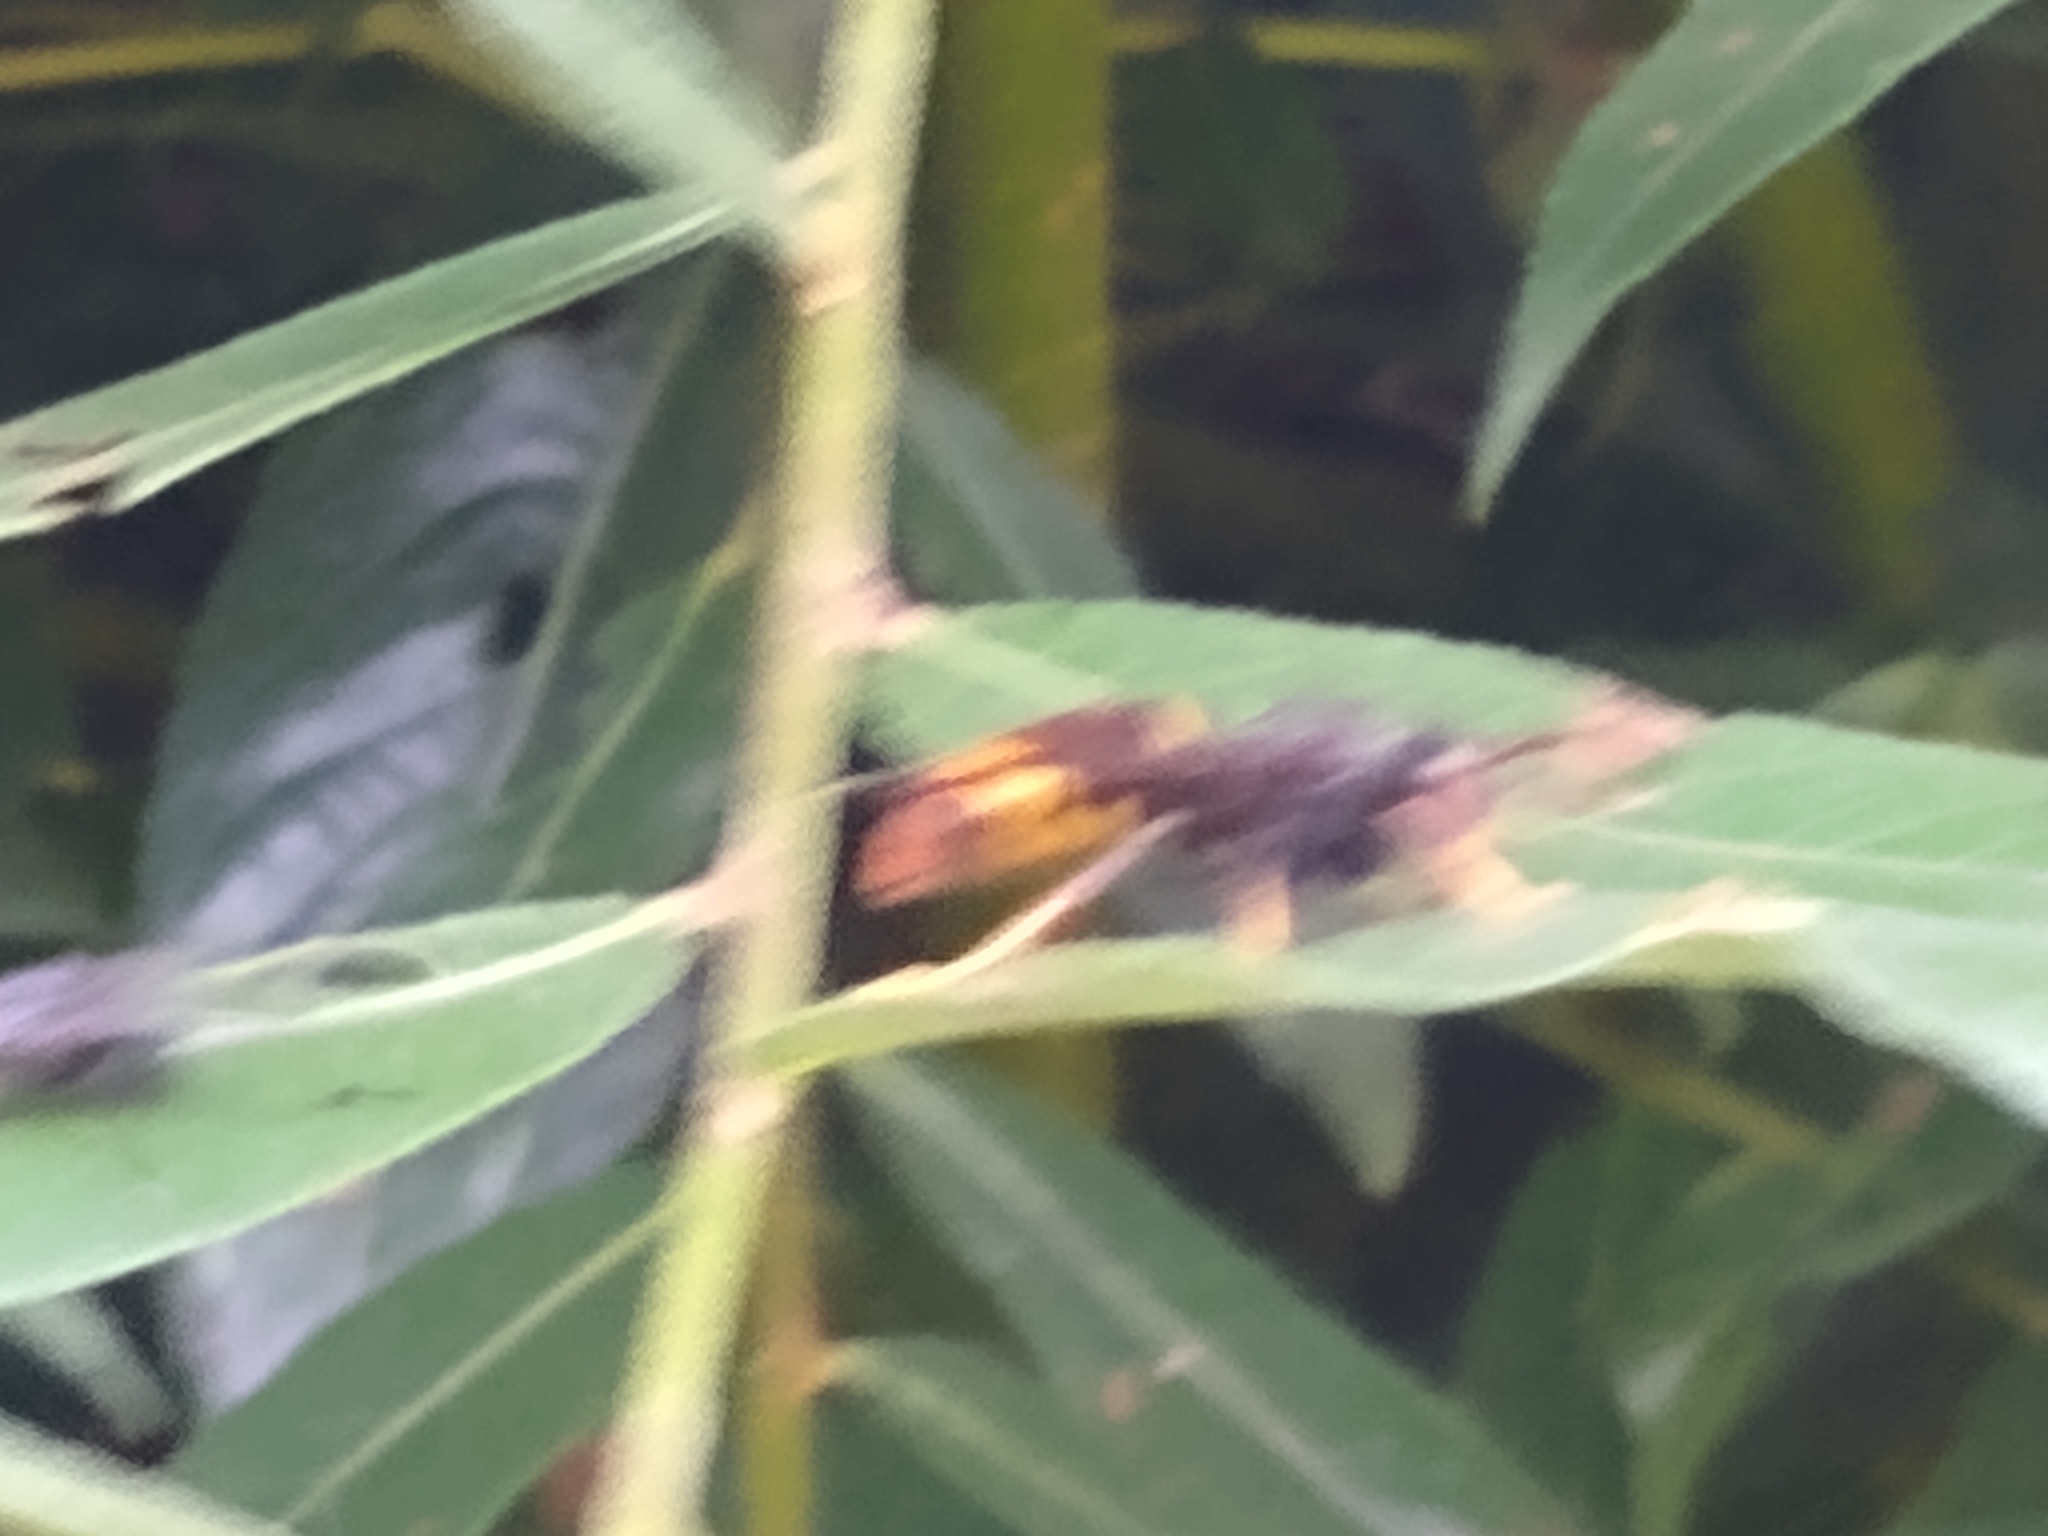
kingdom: Animalia
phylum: Arthropoda
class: Insecta
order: Hymenoptera
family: Vespidae
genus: Vespa
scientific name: Vespa velutina
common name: Asian hornet
